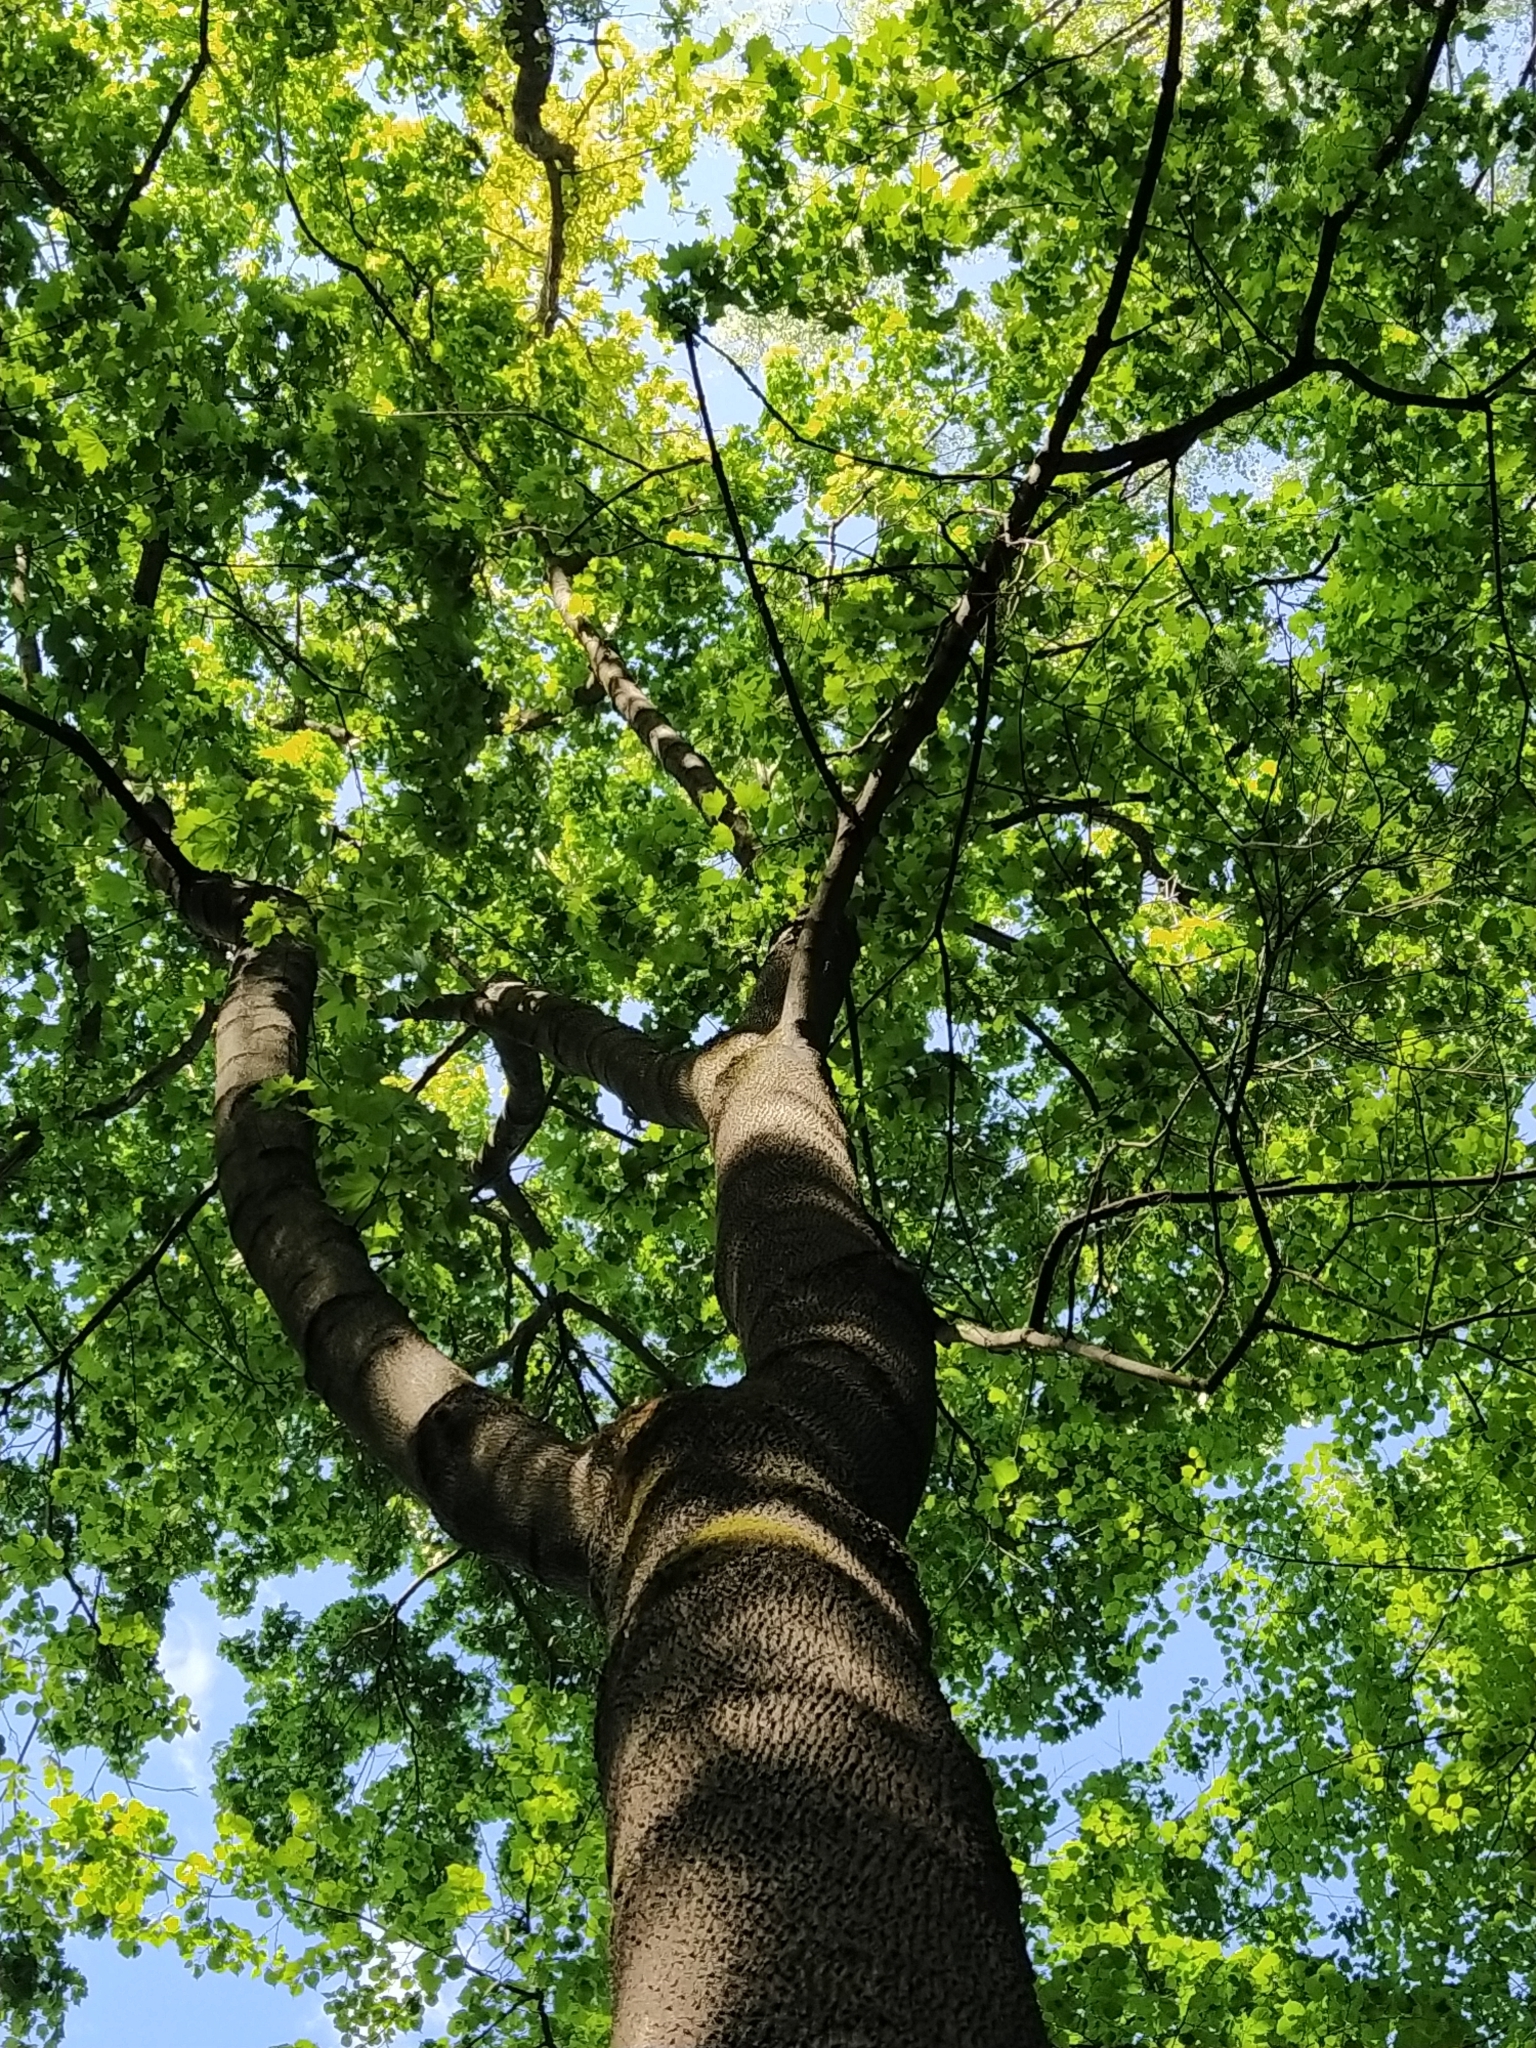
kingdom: Plantae
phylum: Tracheophyta
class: Magnoliopsida
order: Sapindales
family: Sapindaceae
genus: Acer
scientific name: Acer platanoides
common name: Norway maple
